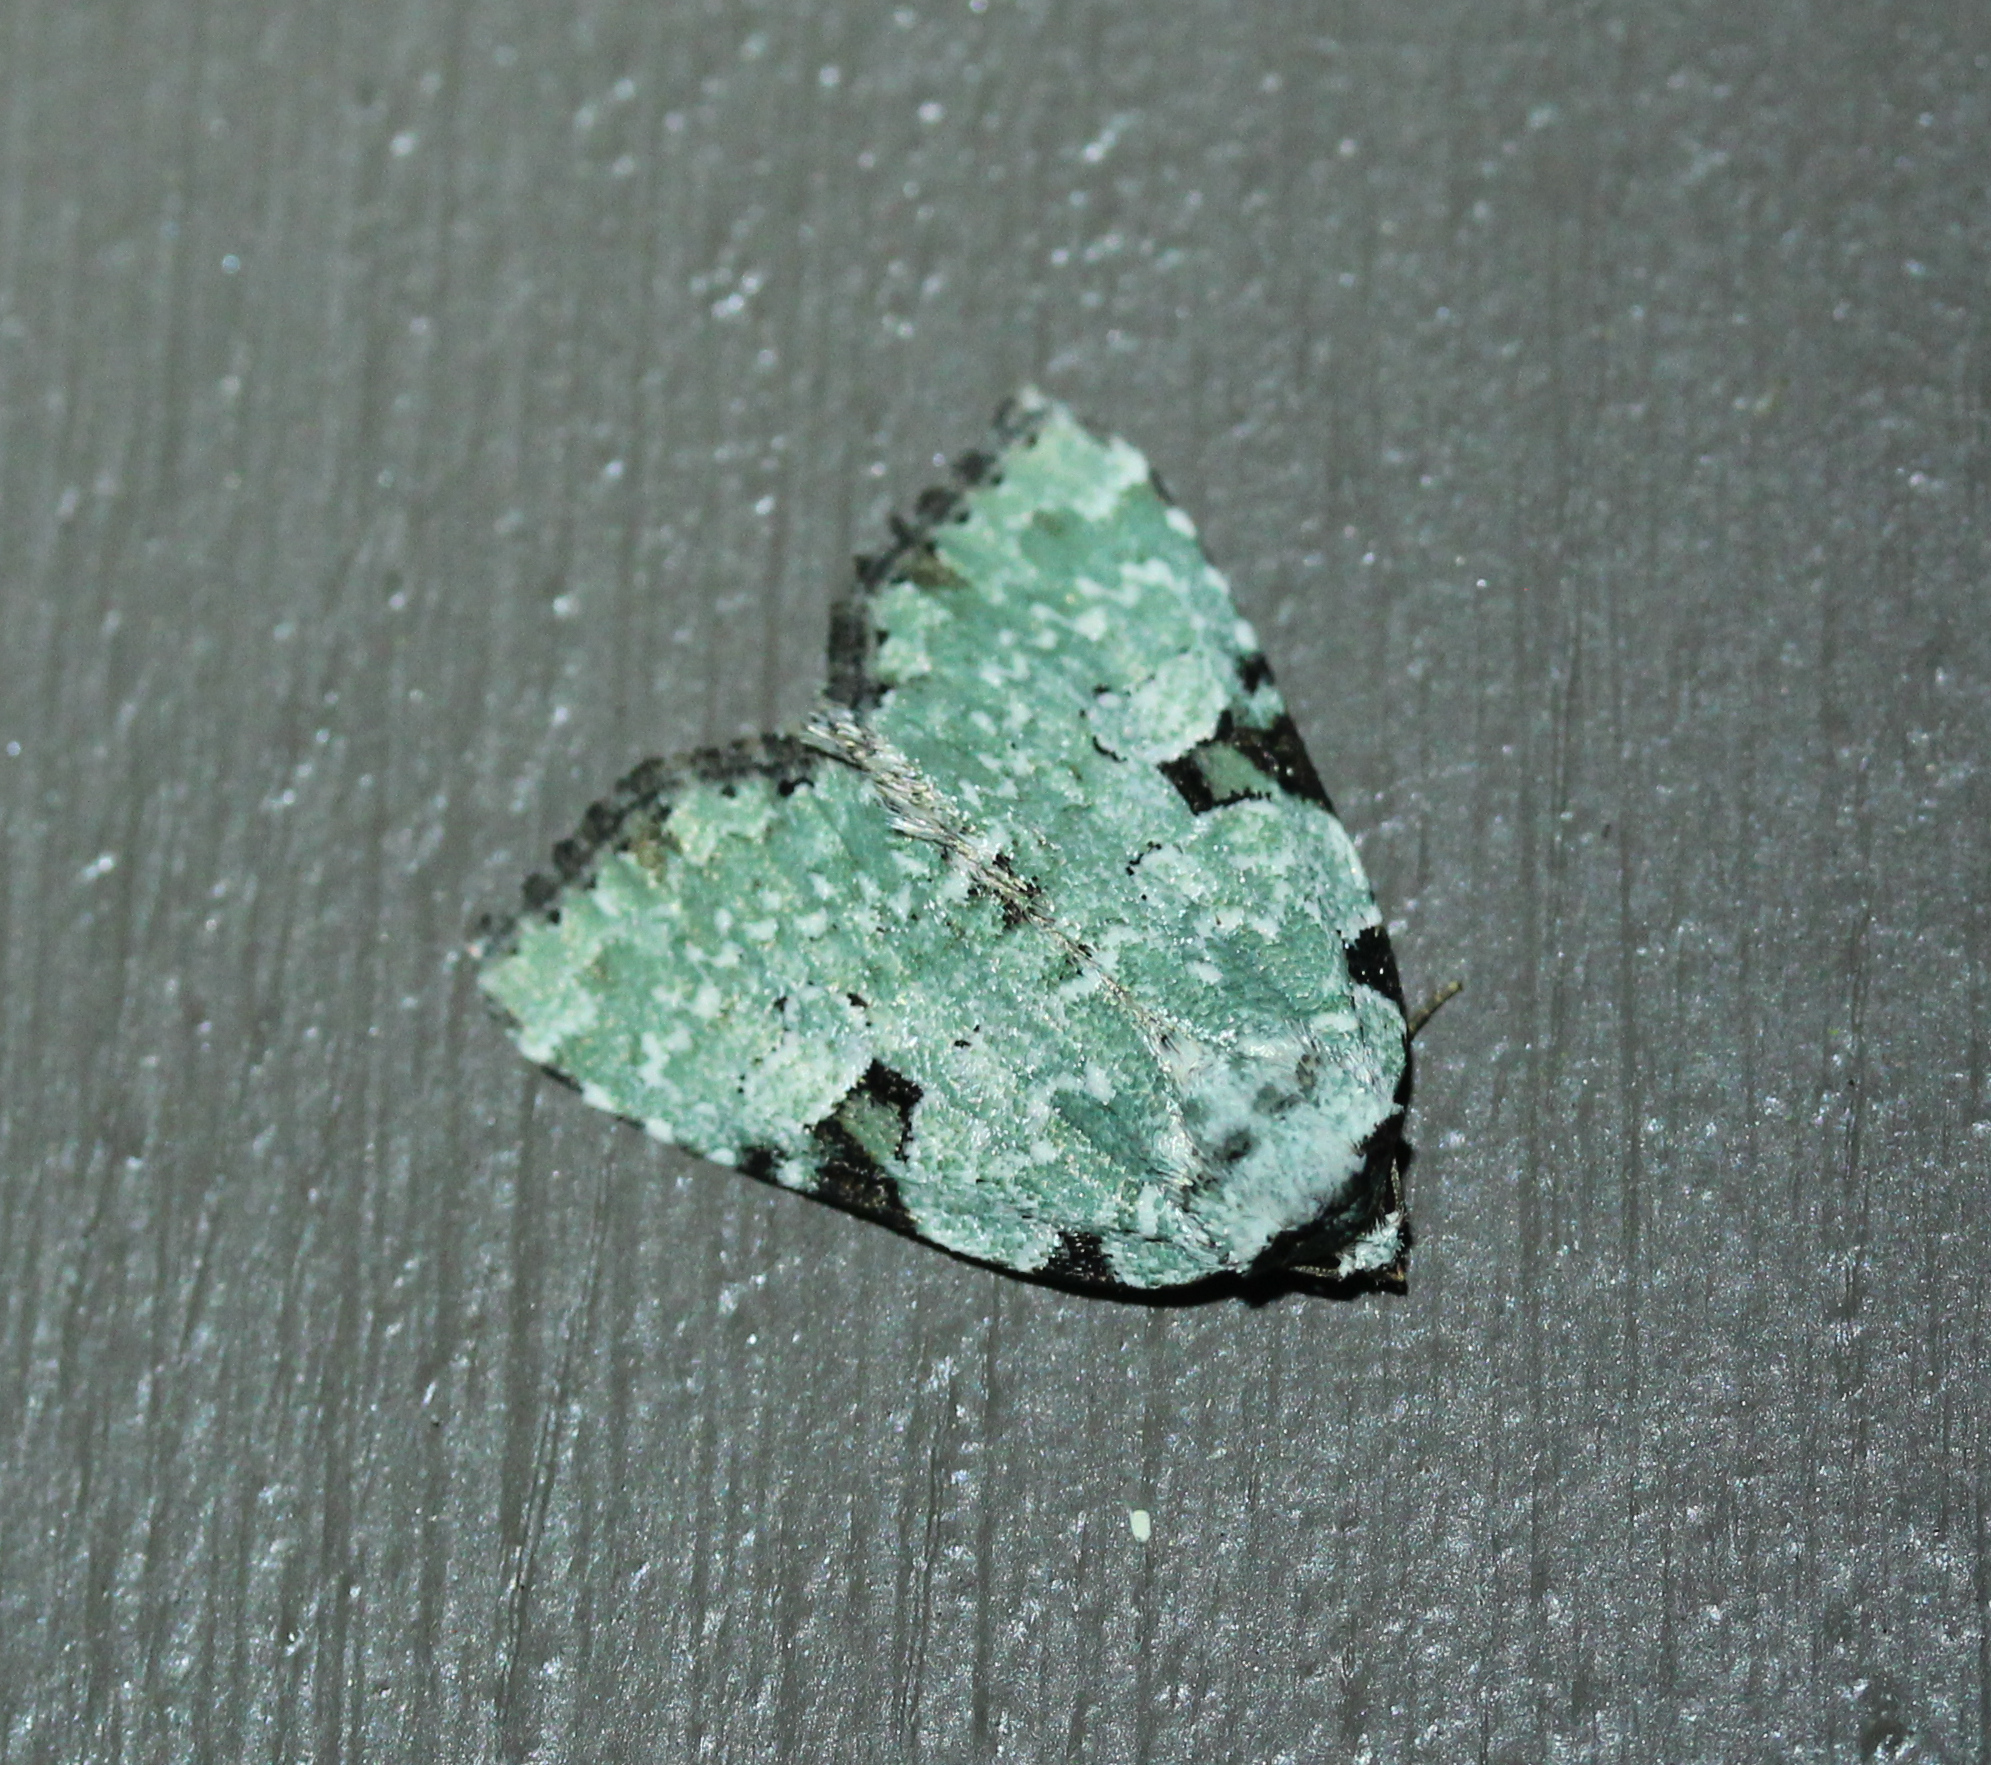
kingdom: Animalia
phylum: Arthropoda
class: Insecta
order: Lepidoptera
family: Noctuidae
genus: Leuconycta
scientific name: Leuconycta diphteroides
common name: Green leuconycta moth
